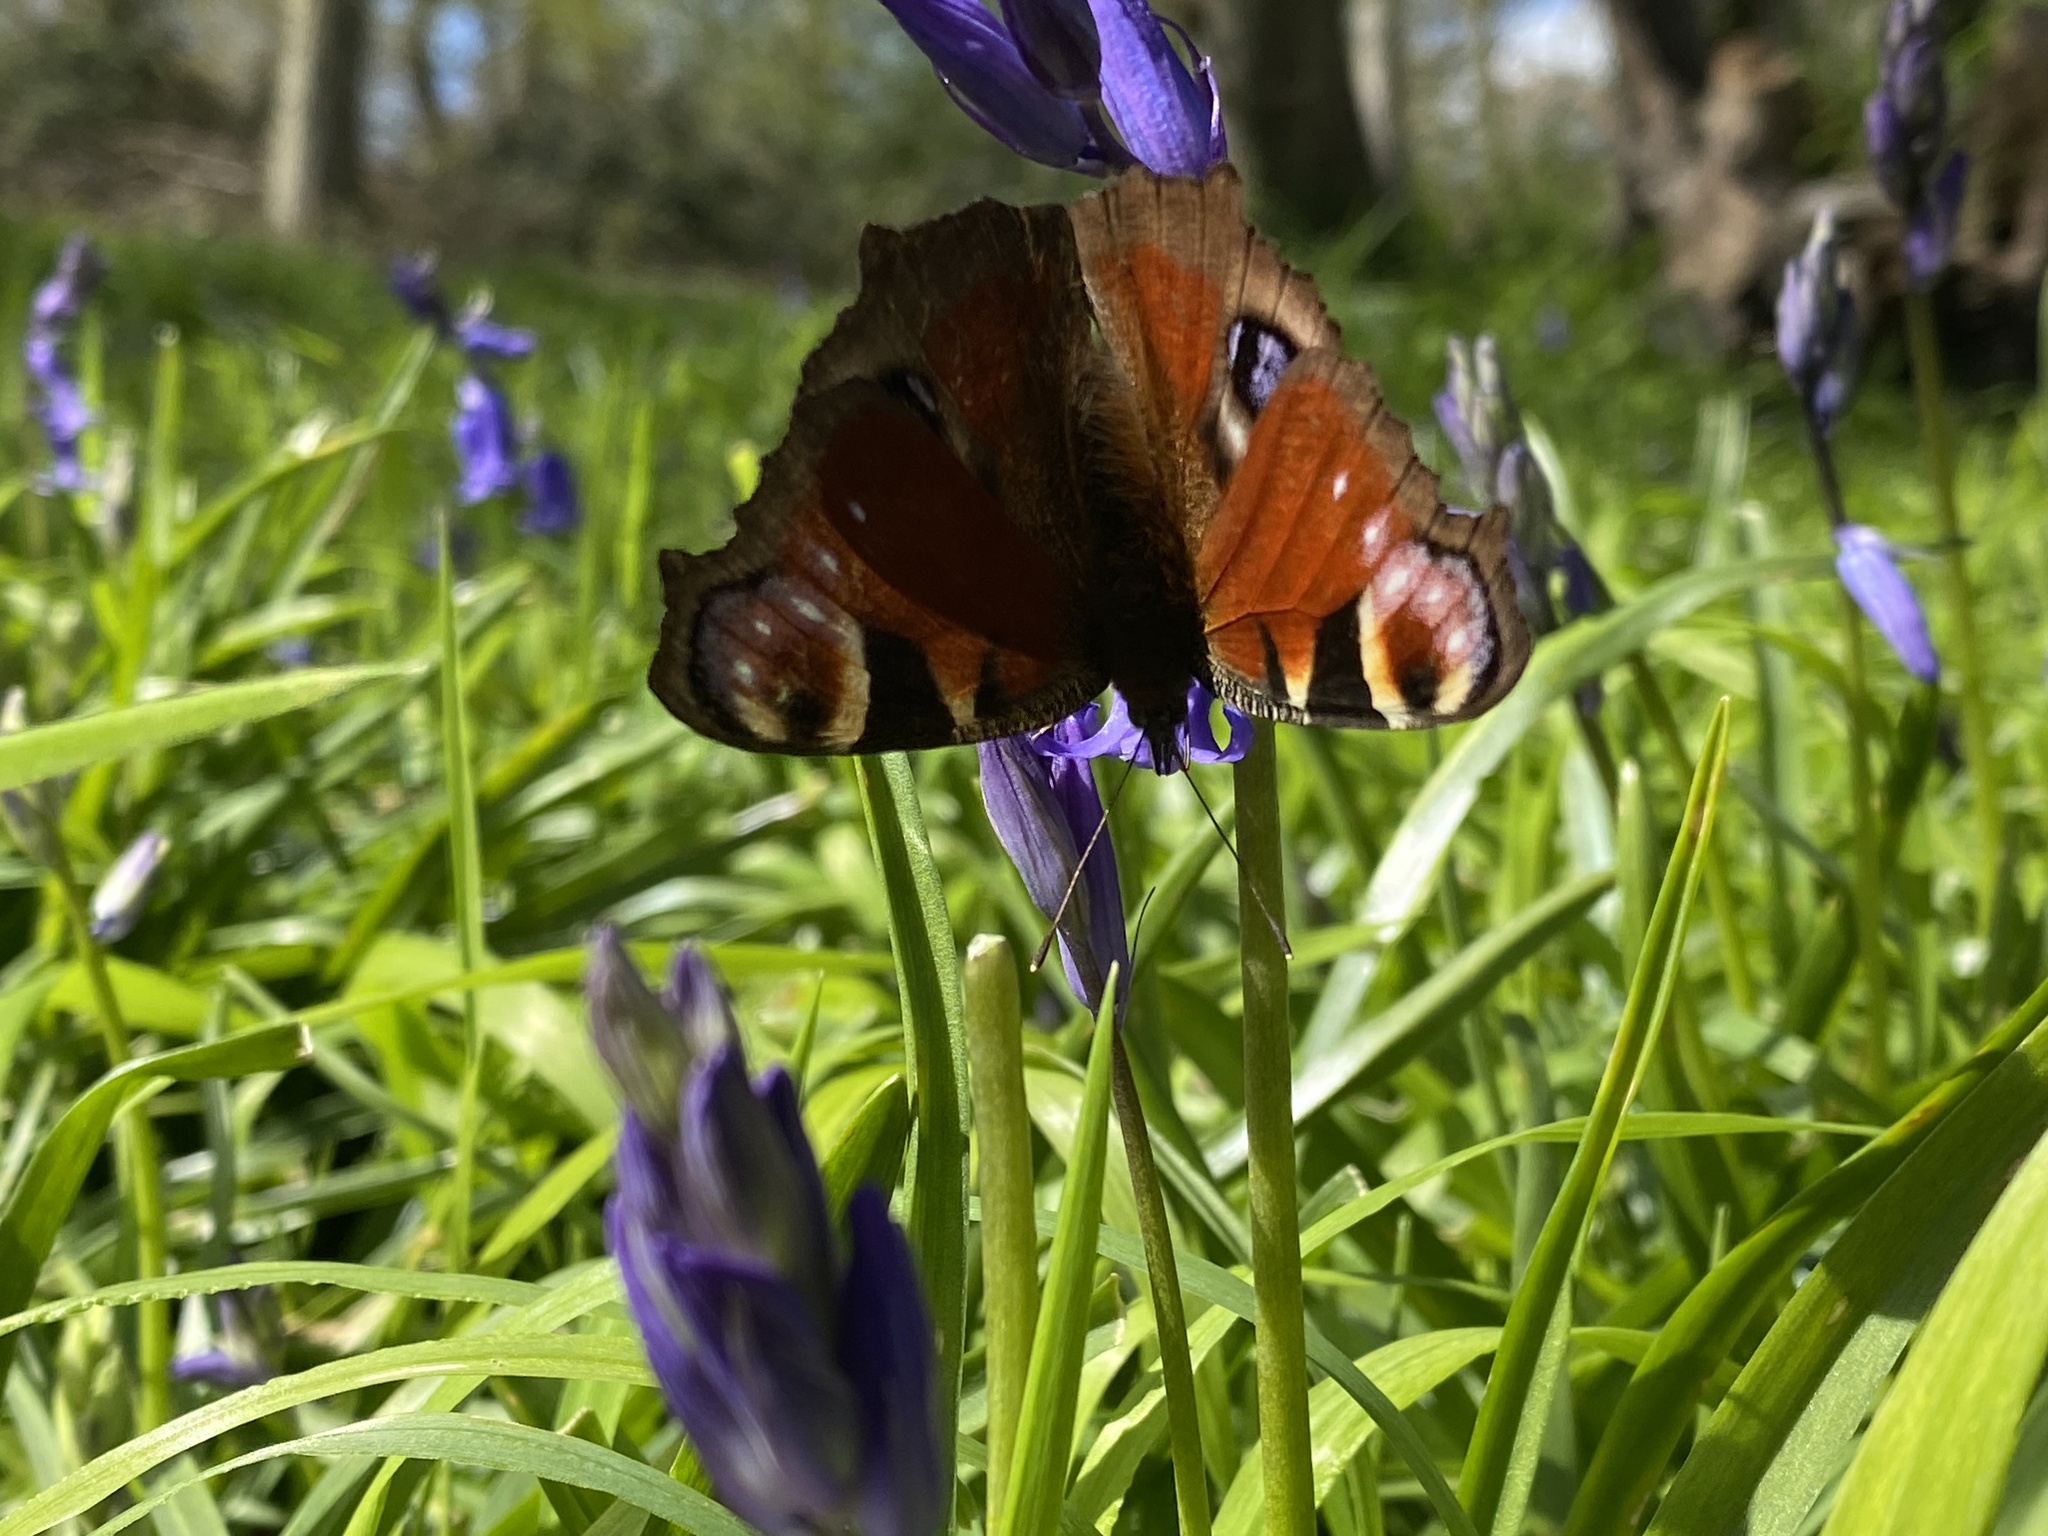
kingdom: Animalia
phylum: Arthropoda
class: Insecta
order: Lepidoptera
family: Nymphalidae
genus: Aglais
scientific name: Aglais io
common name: Peacock
